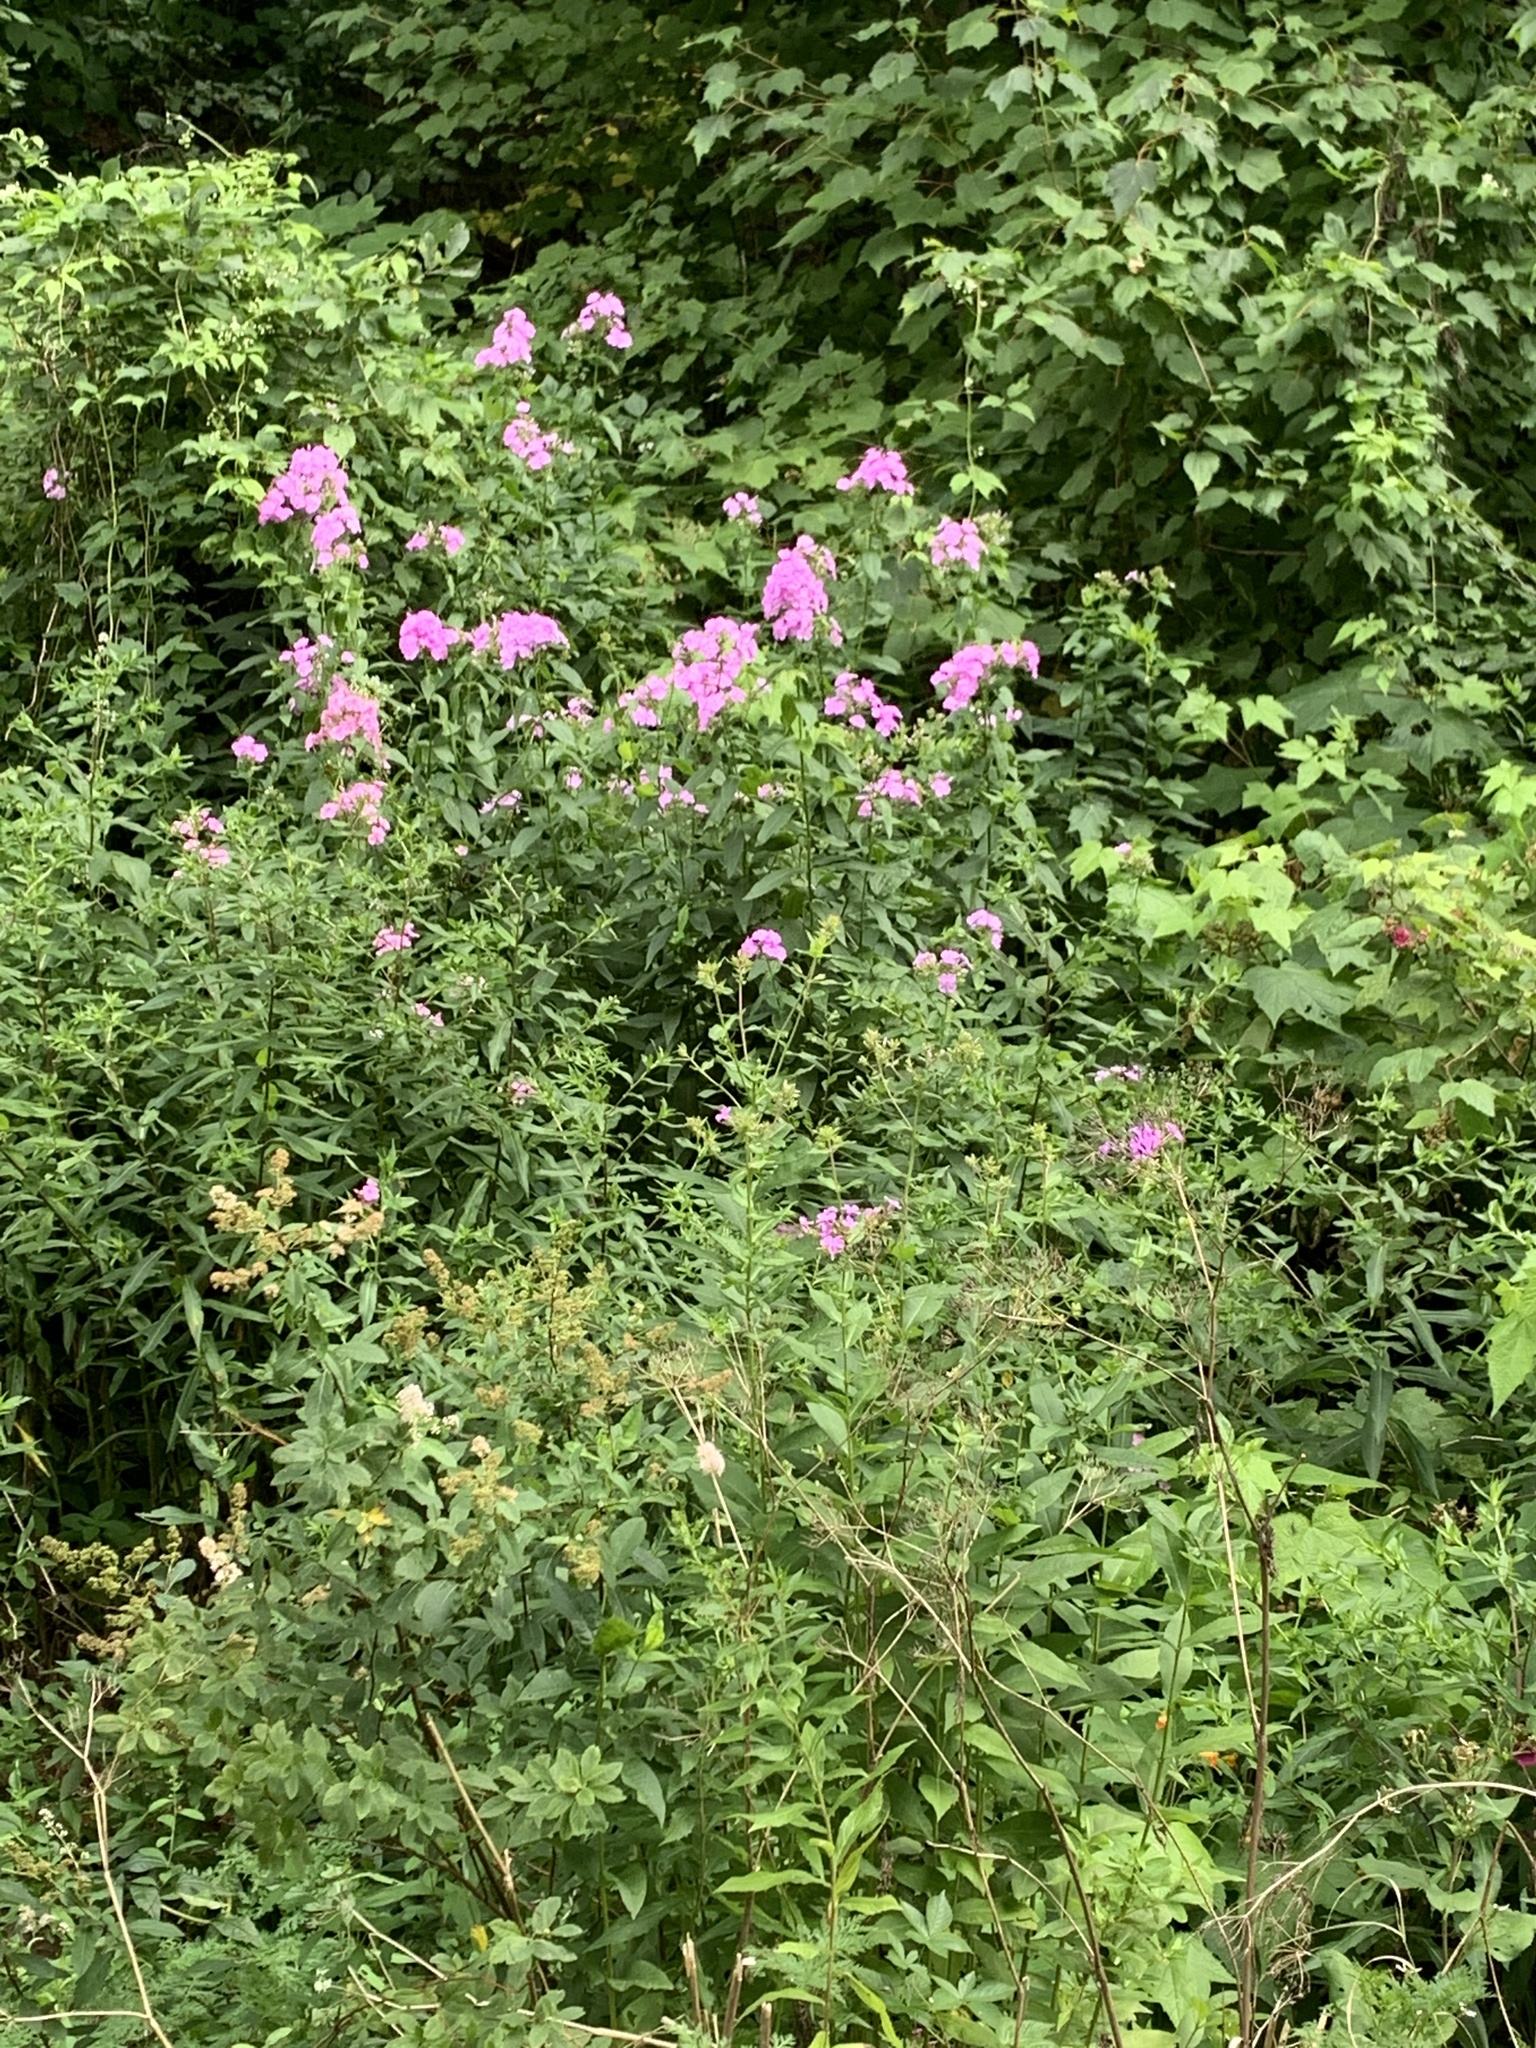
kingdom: Plantae
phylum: Tracheophyta
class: Magnoliopsida
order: Ericales
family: Polemoniaceae
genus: Phlox
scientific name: Phlox paniculata
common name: Fall phlox
